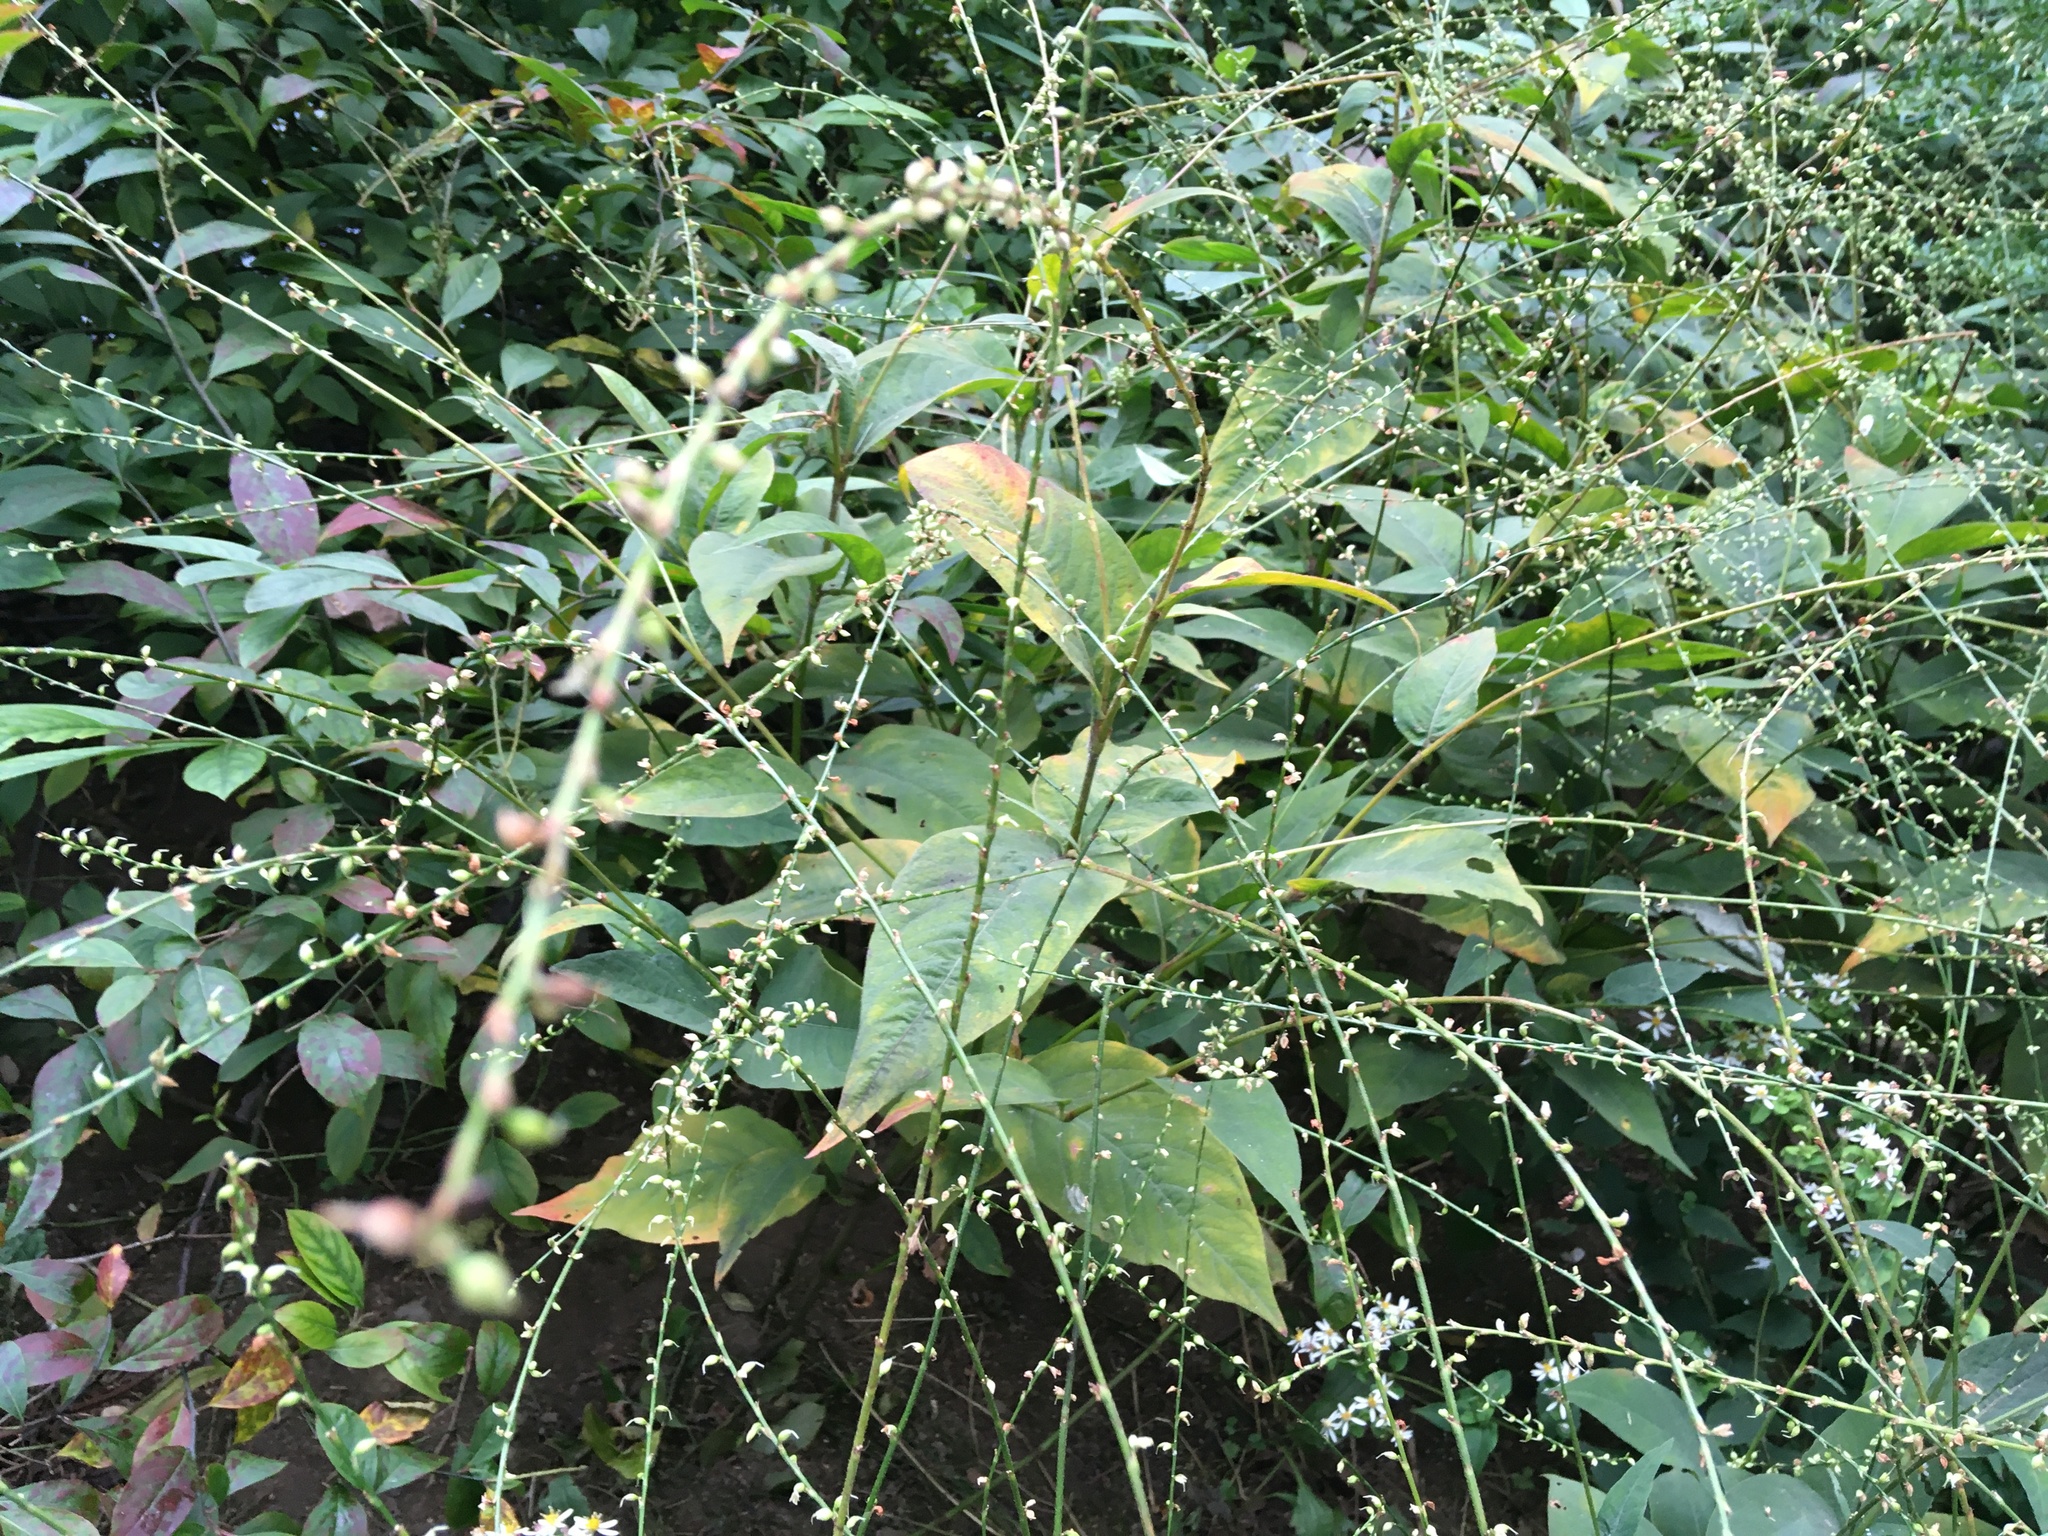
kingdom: Plantae
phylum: Tracheophyta
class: Magnoliopsida
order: Caryophyllales
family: Polygonaceae
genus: Persicaria
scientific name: Persicaria virginiana
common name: Jumpseed
